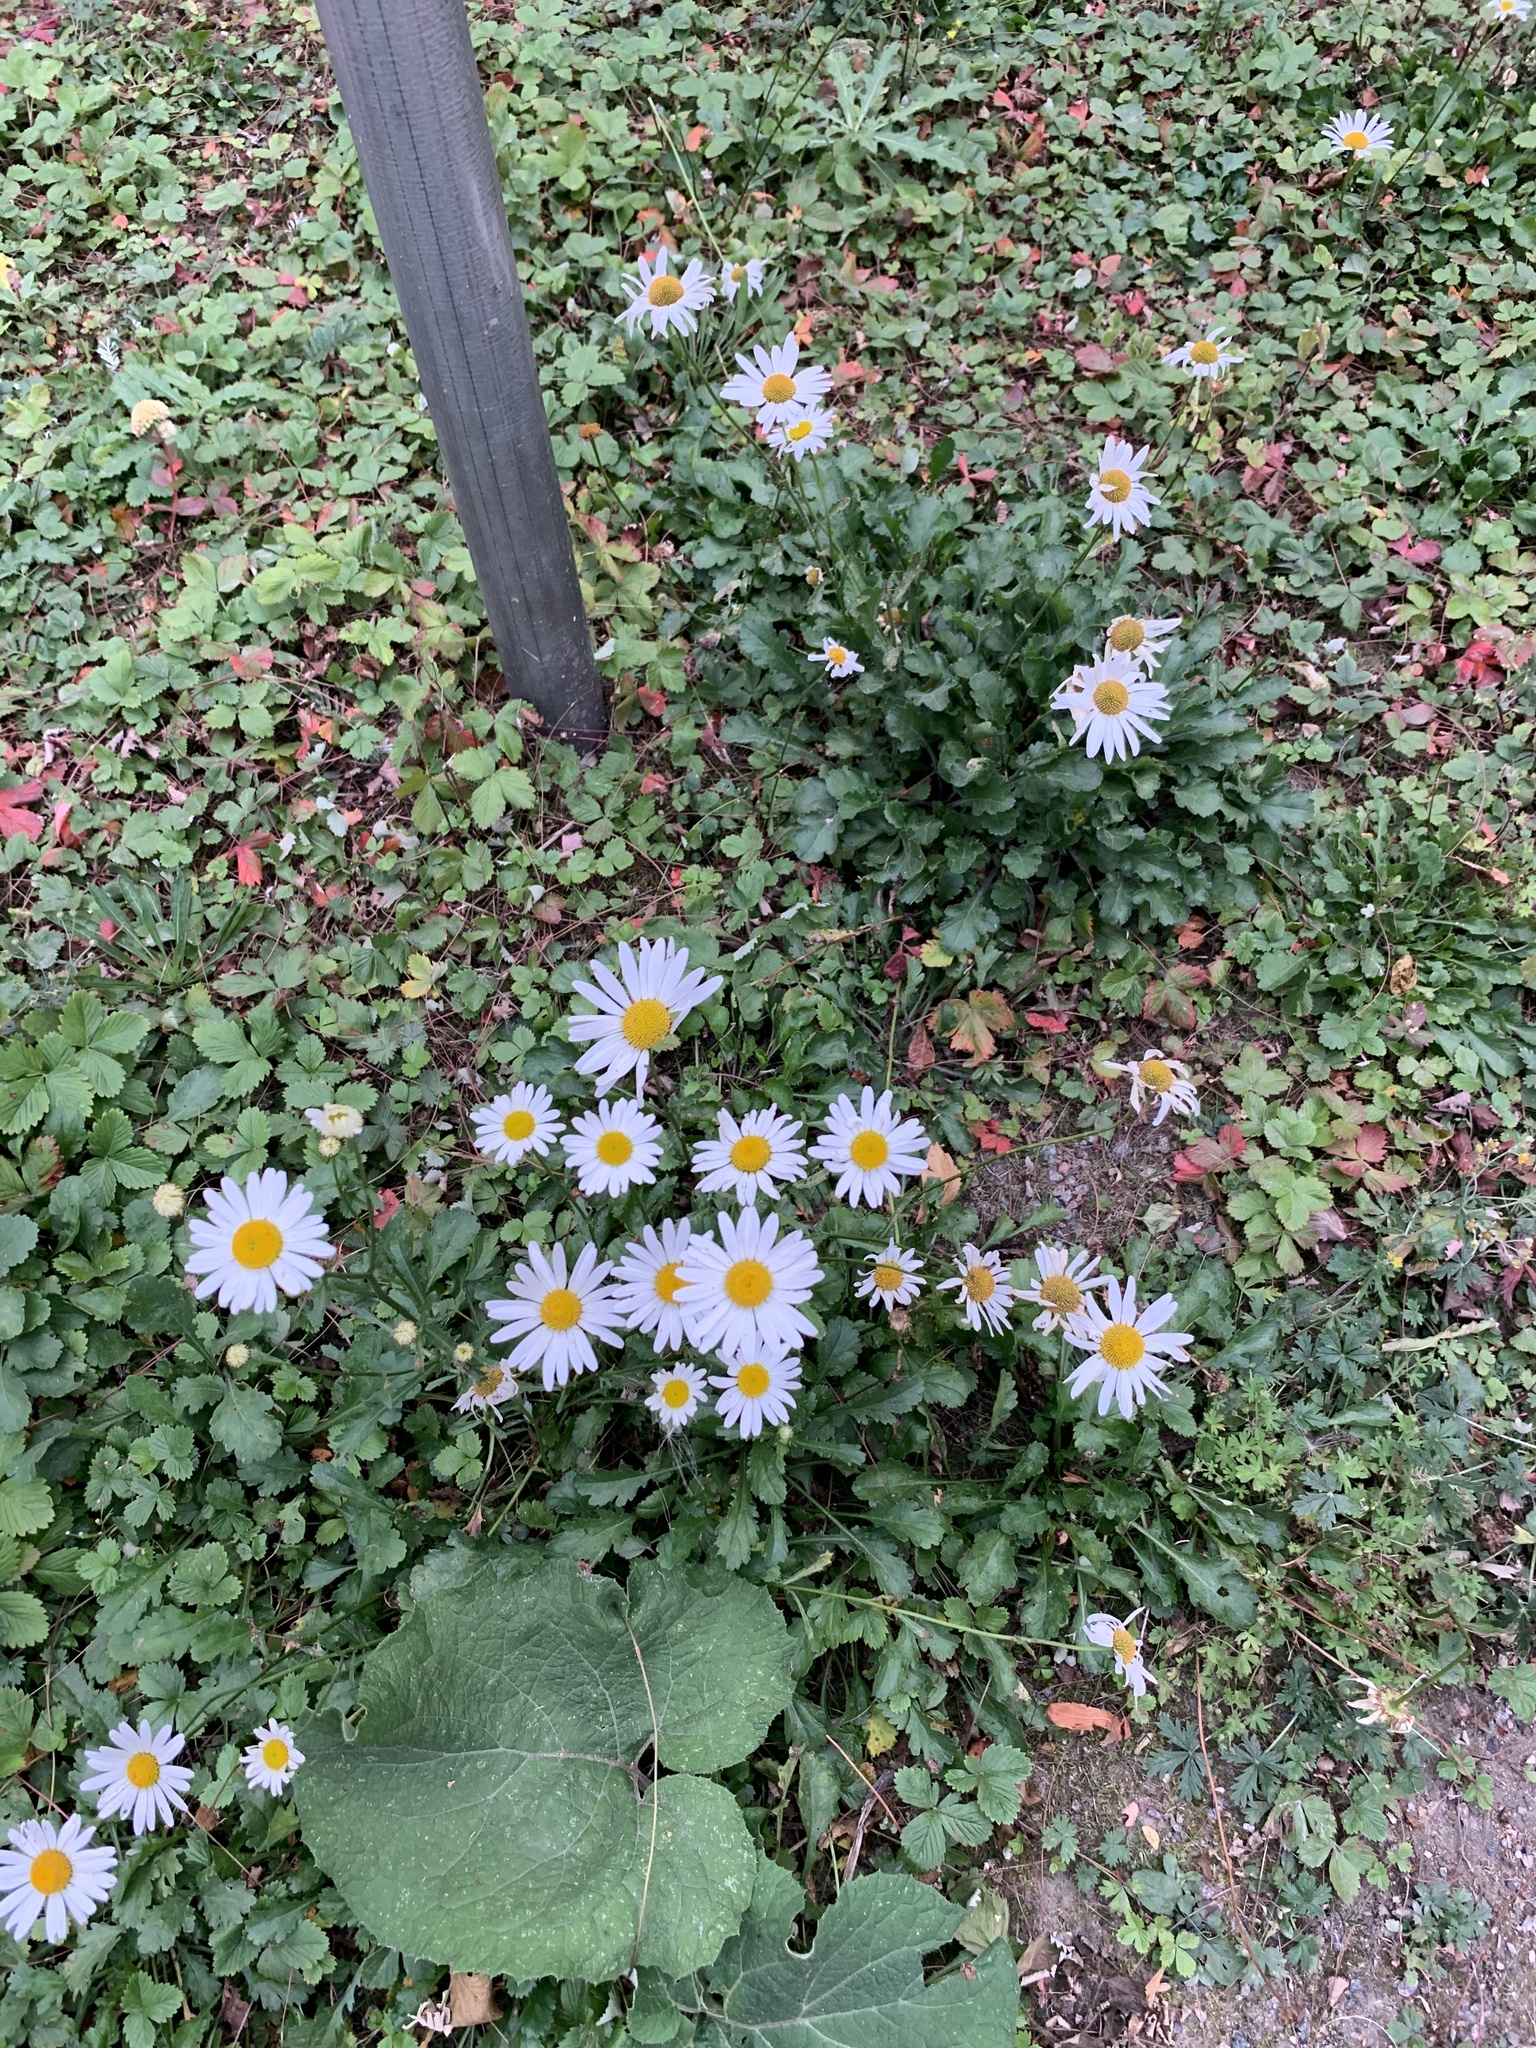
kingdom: Plantae
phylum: Tracheophyta
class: Magnoliopsida
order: Asterales
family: Asteraceae
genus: Leucanthemum
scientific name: Leucanthemum vulgare
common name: Oxeye daisy
